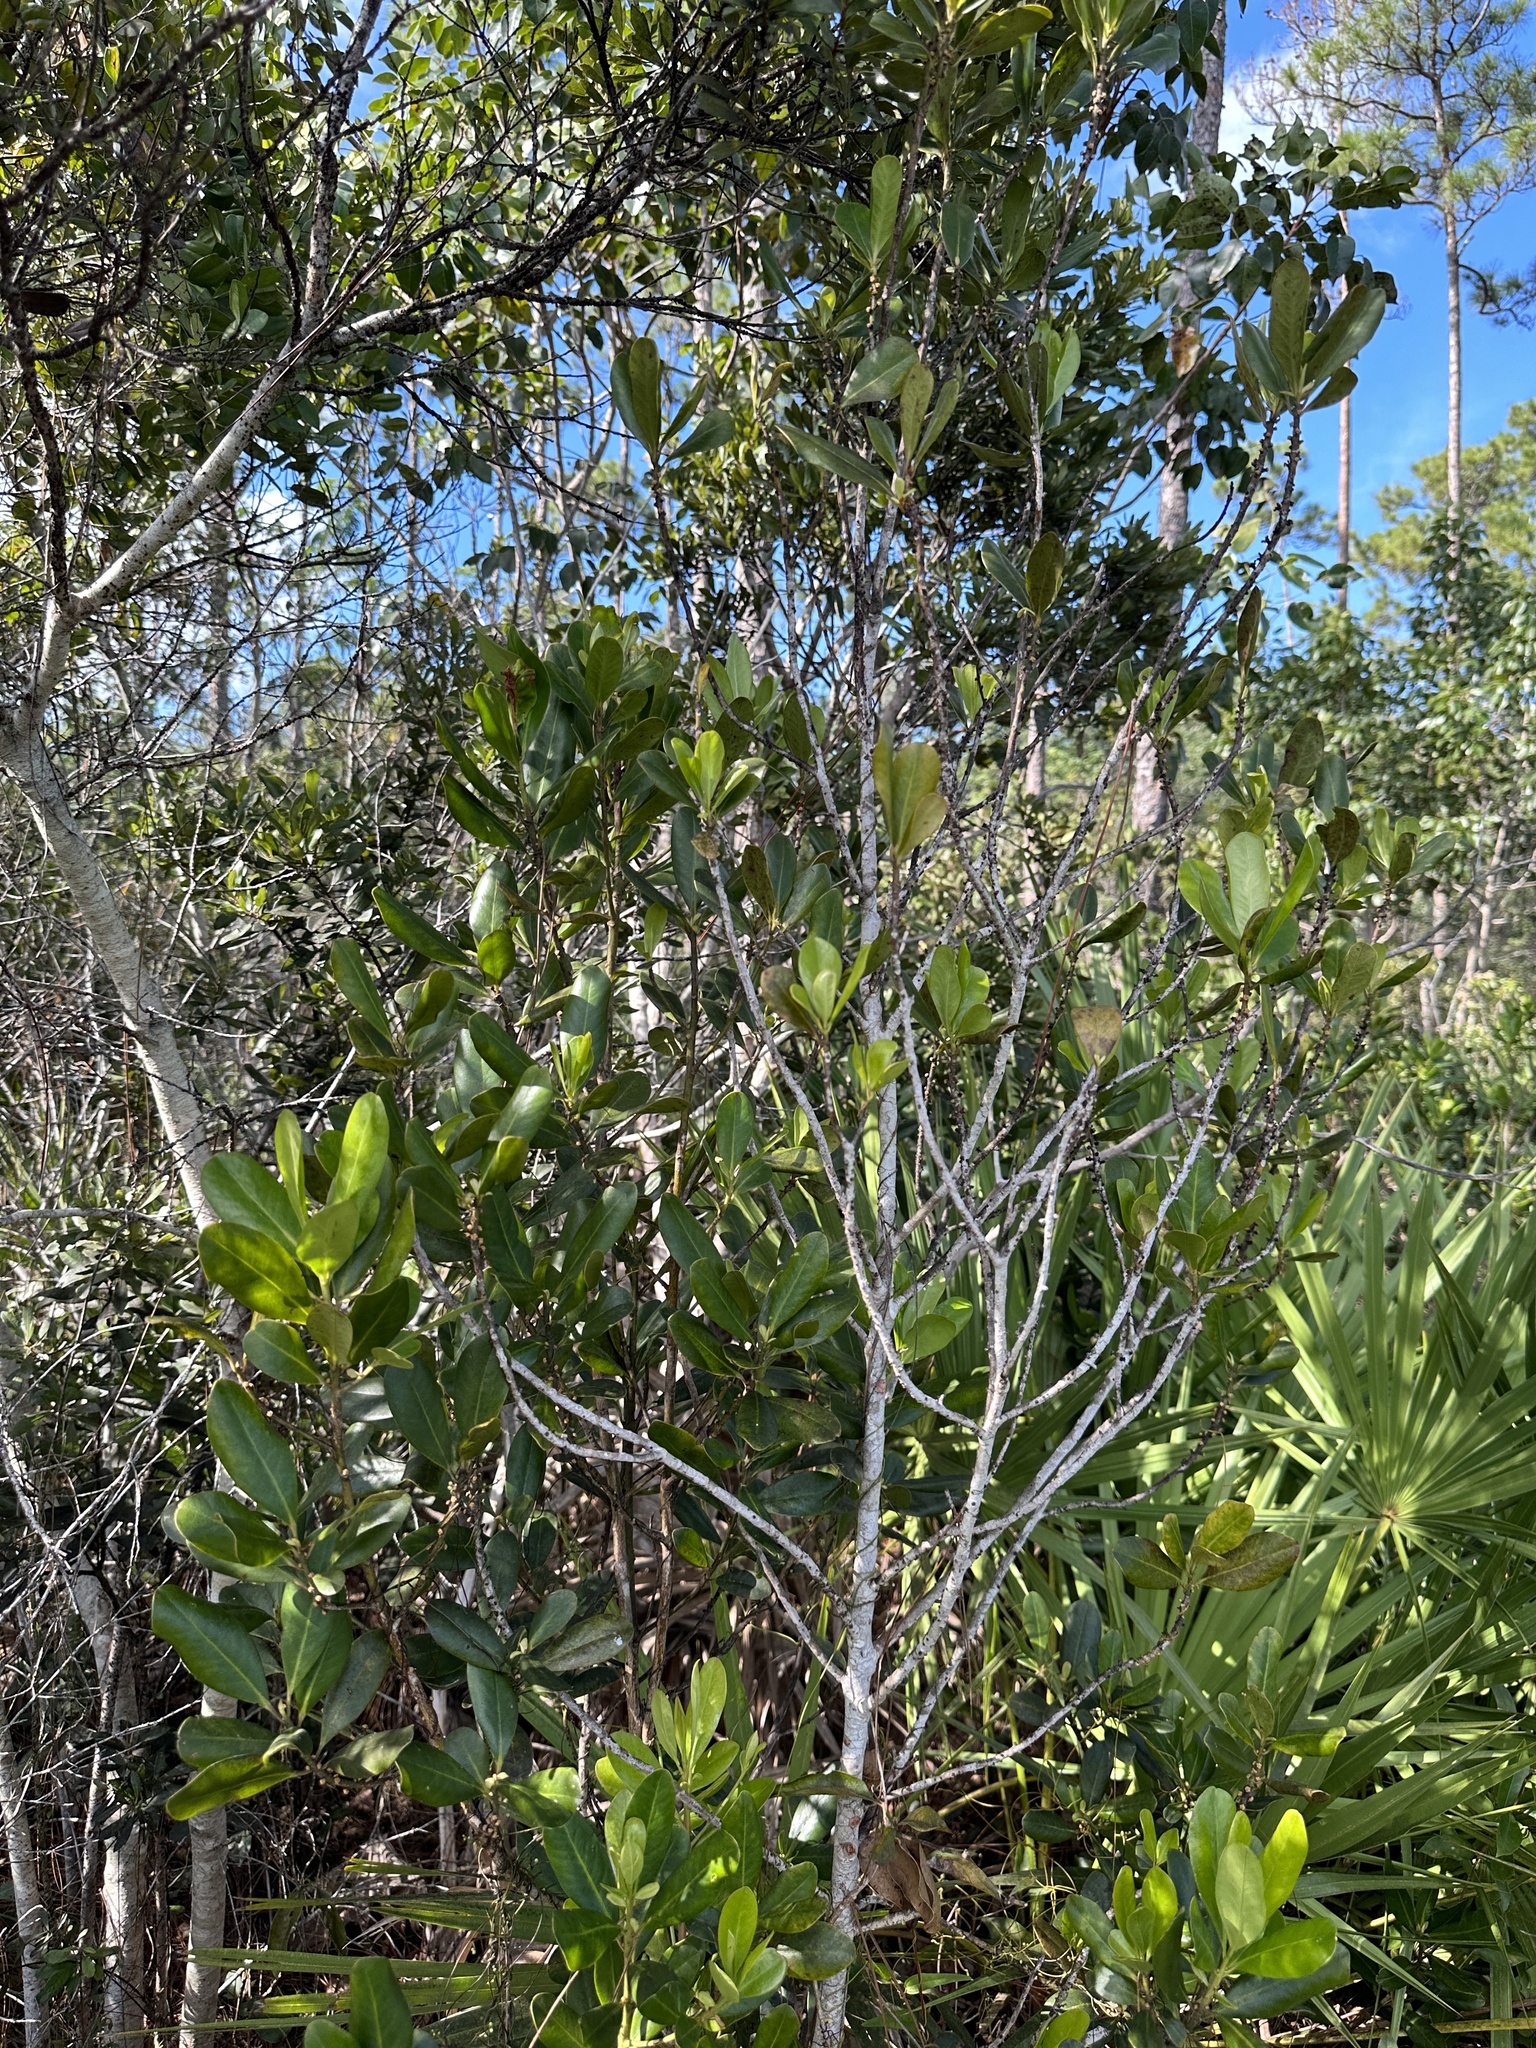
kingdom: Plantae
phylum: Tracheophyta
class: Magnoliopsida
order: Ericales
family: Primulaceae
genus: Myrsine
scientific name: Myrsine floridana
